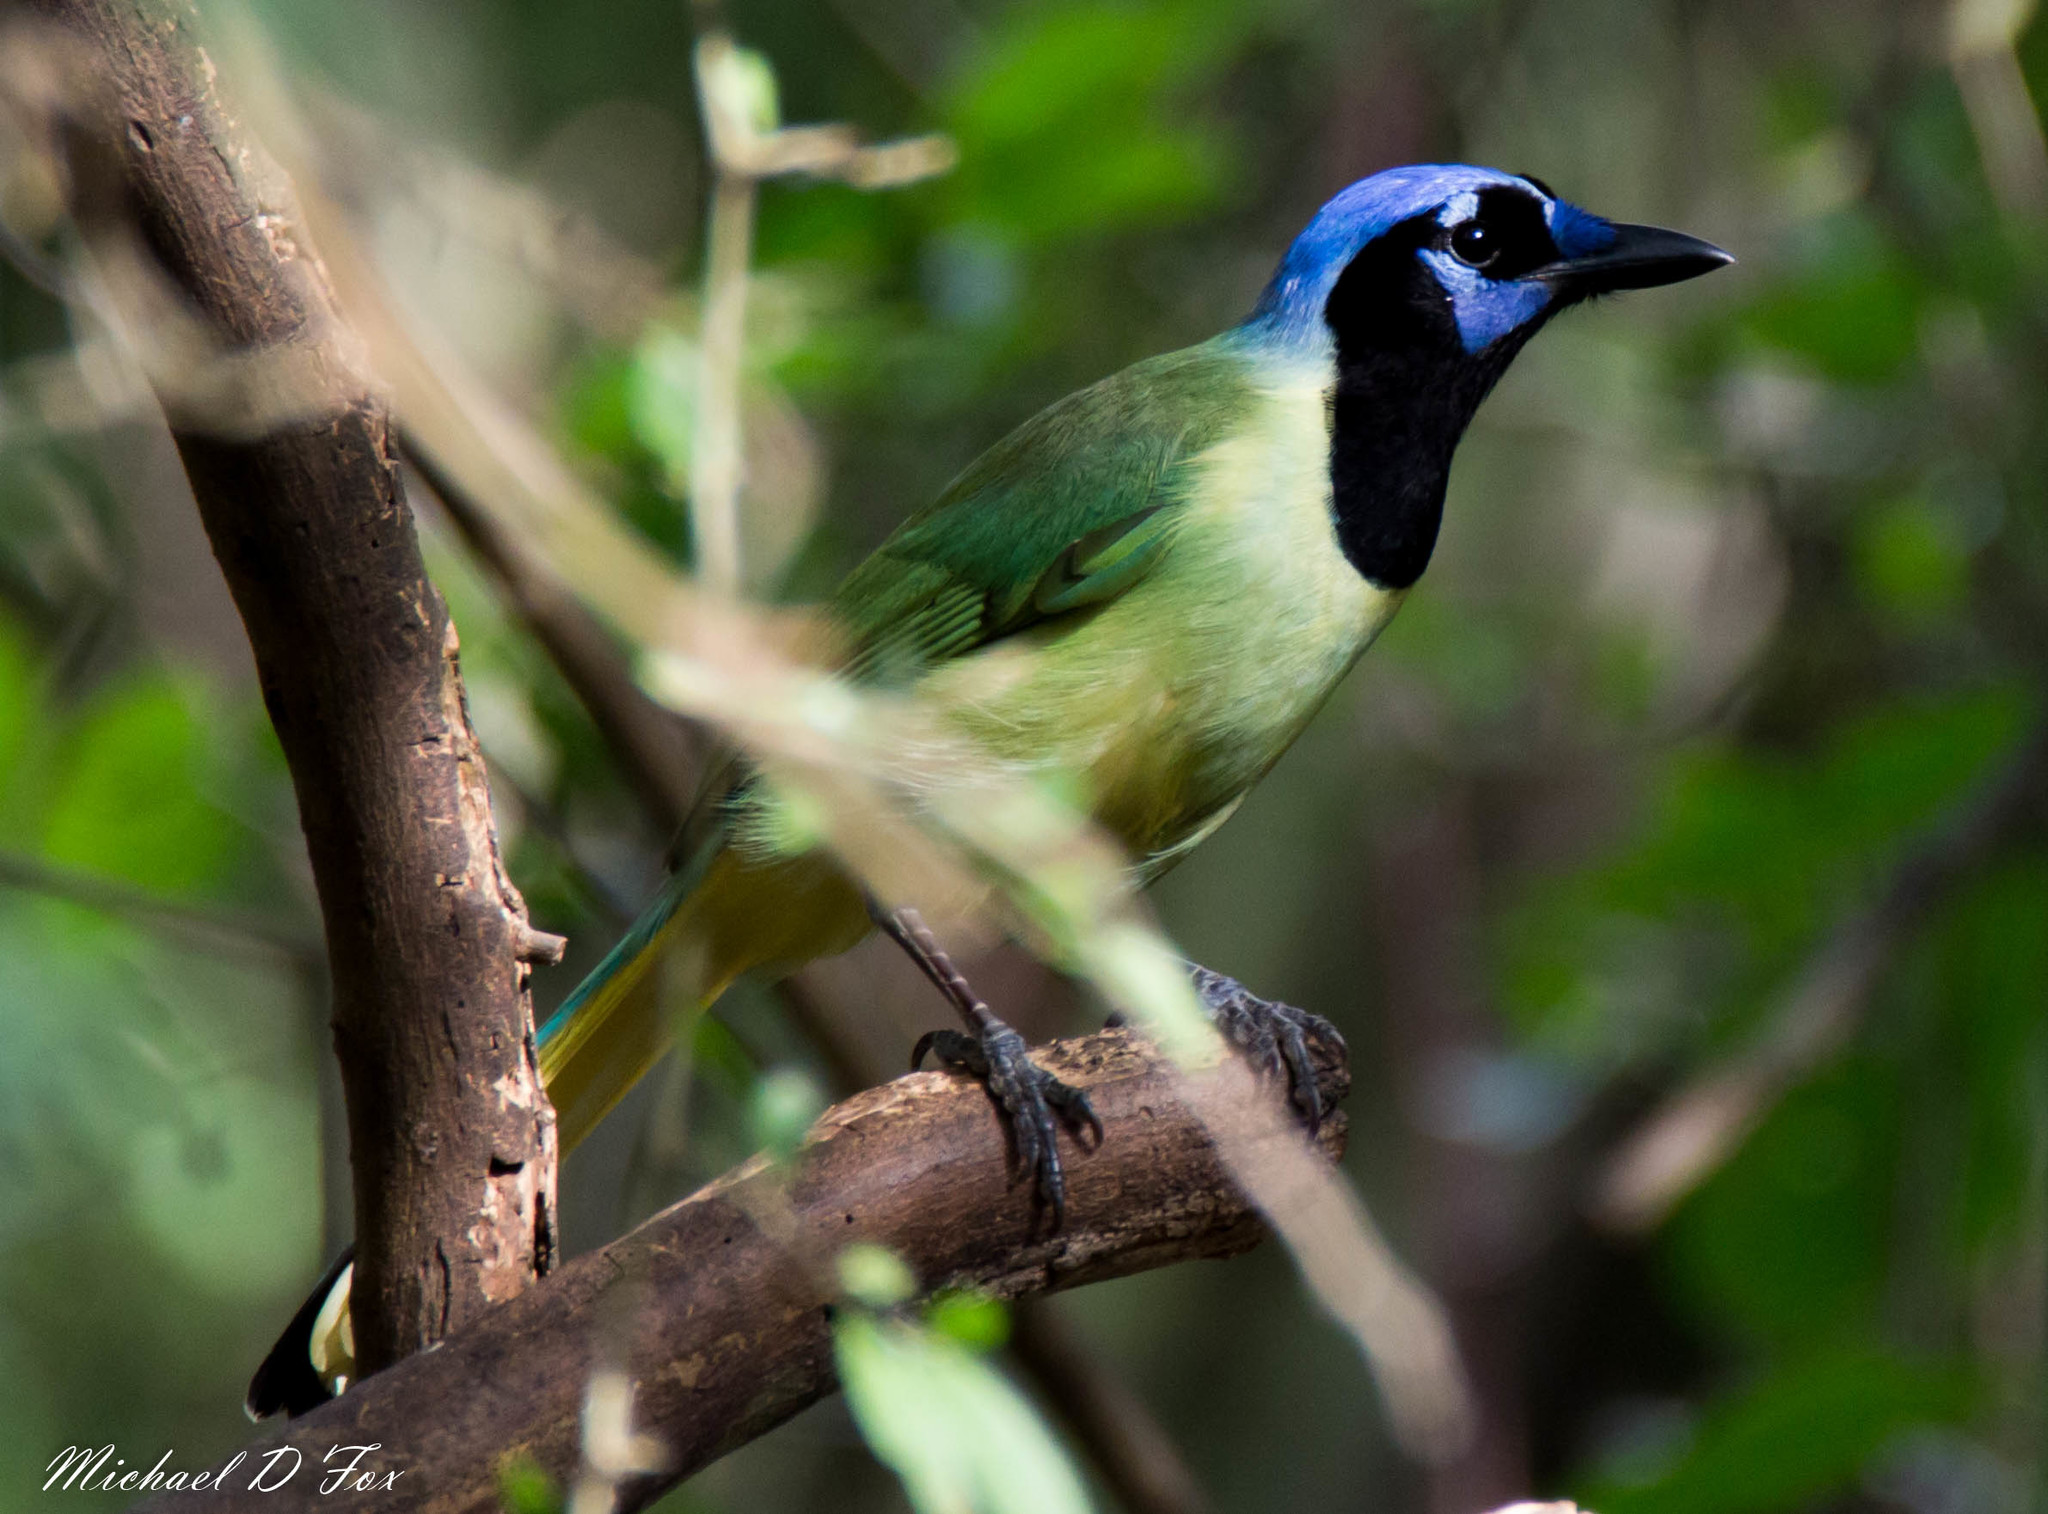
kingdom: Animalia
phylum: Chordata
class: Aves
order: Passeriformes
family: Corvidae
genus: Cyanocorax
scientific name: Cyanocorax yncas
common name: Green jay
